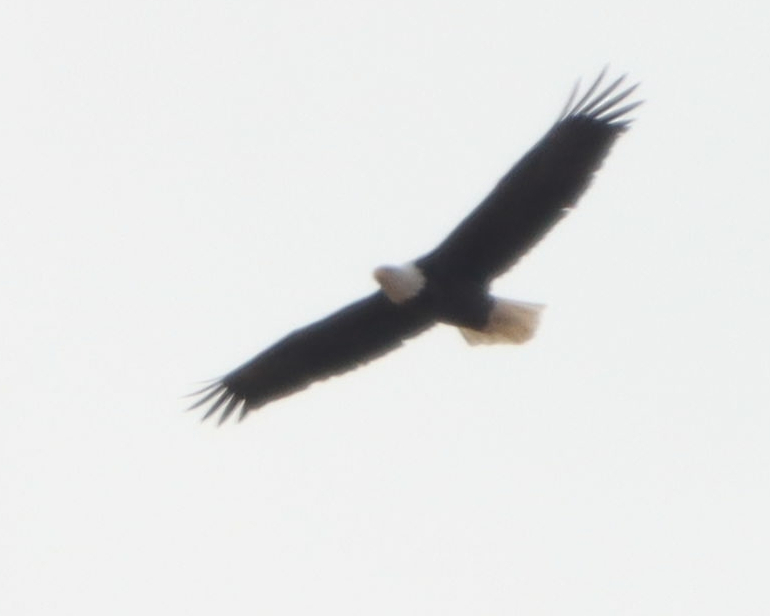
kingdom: Animalia
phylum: Chordata
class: Aves
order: Accipitriformes
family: Accipitridae
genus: Haliaeetus
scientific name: Haliaeetus leucocephalus
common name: Bald eagle
